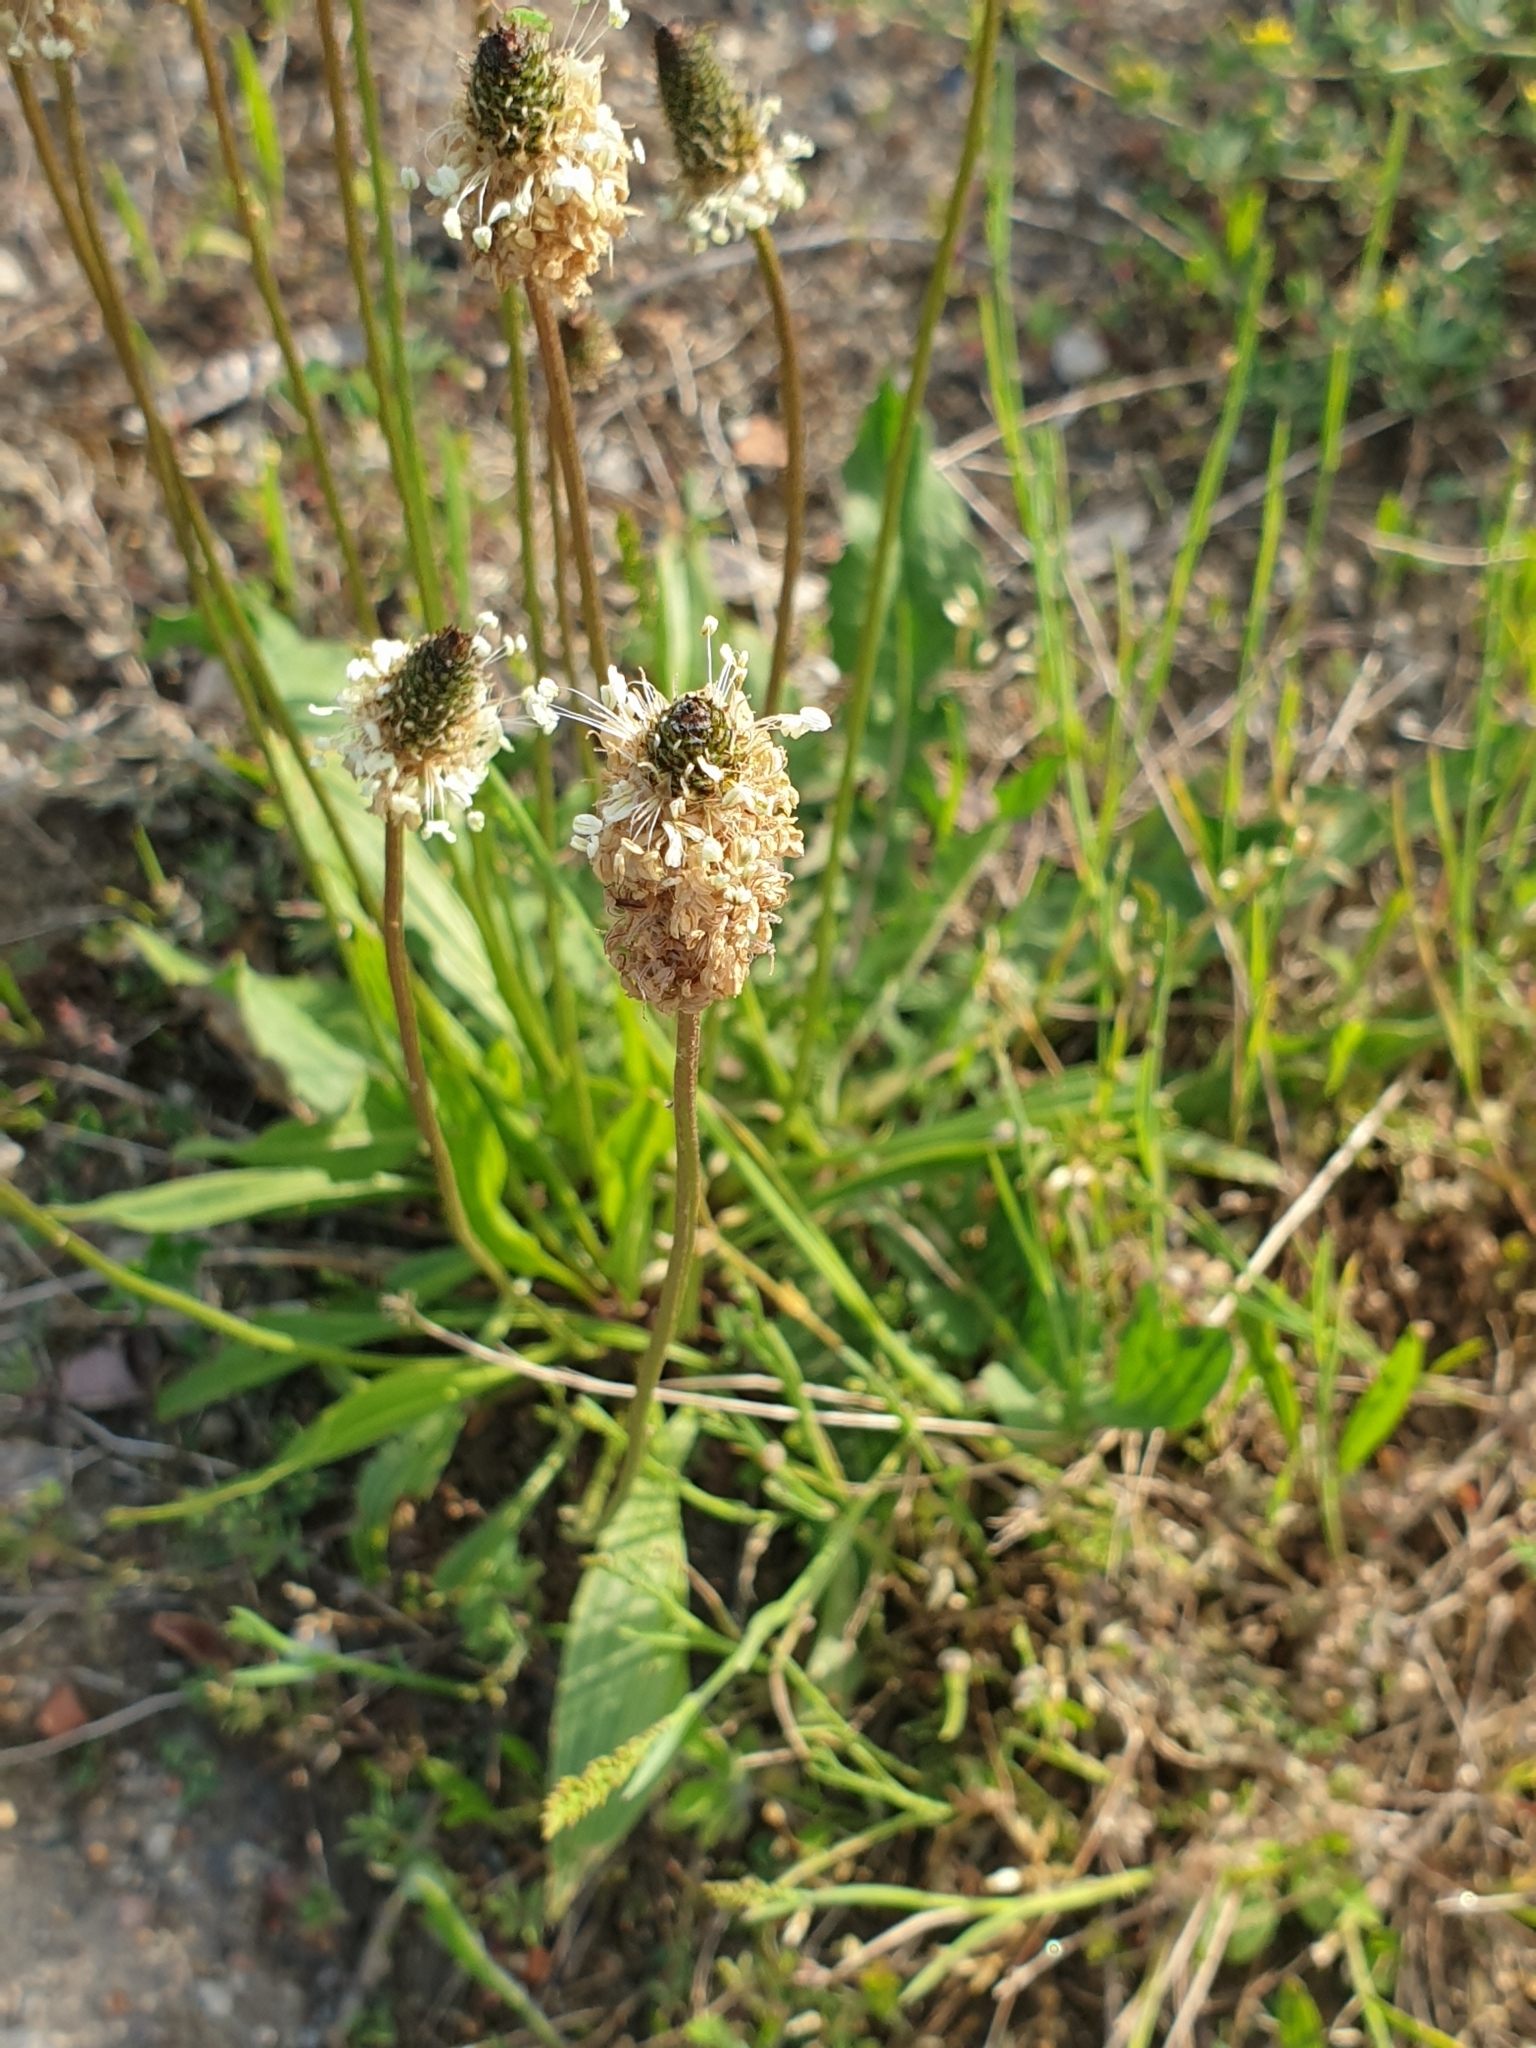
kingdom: Plantae
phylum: Tracheophyta
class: Magnoliopsida
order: Lamiales
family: Plantaginaceae
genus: Plantago
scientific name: Plantago lanceolata
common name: Ribwort plantain
